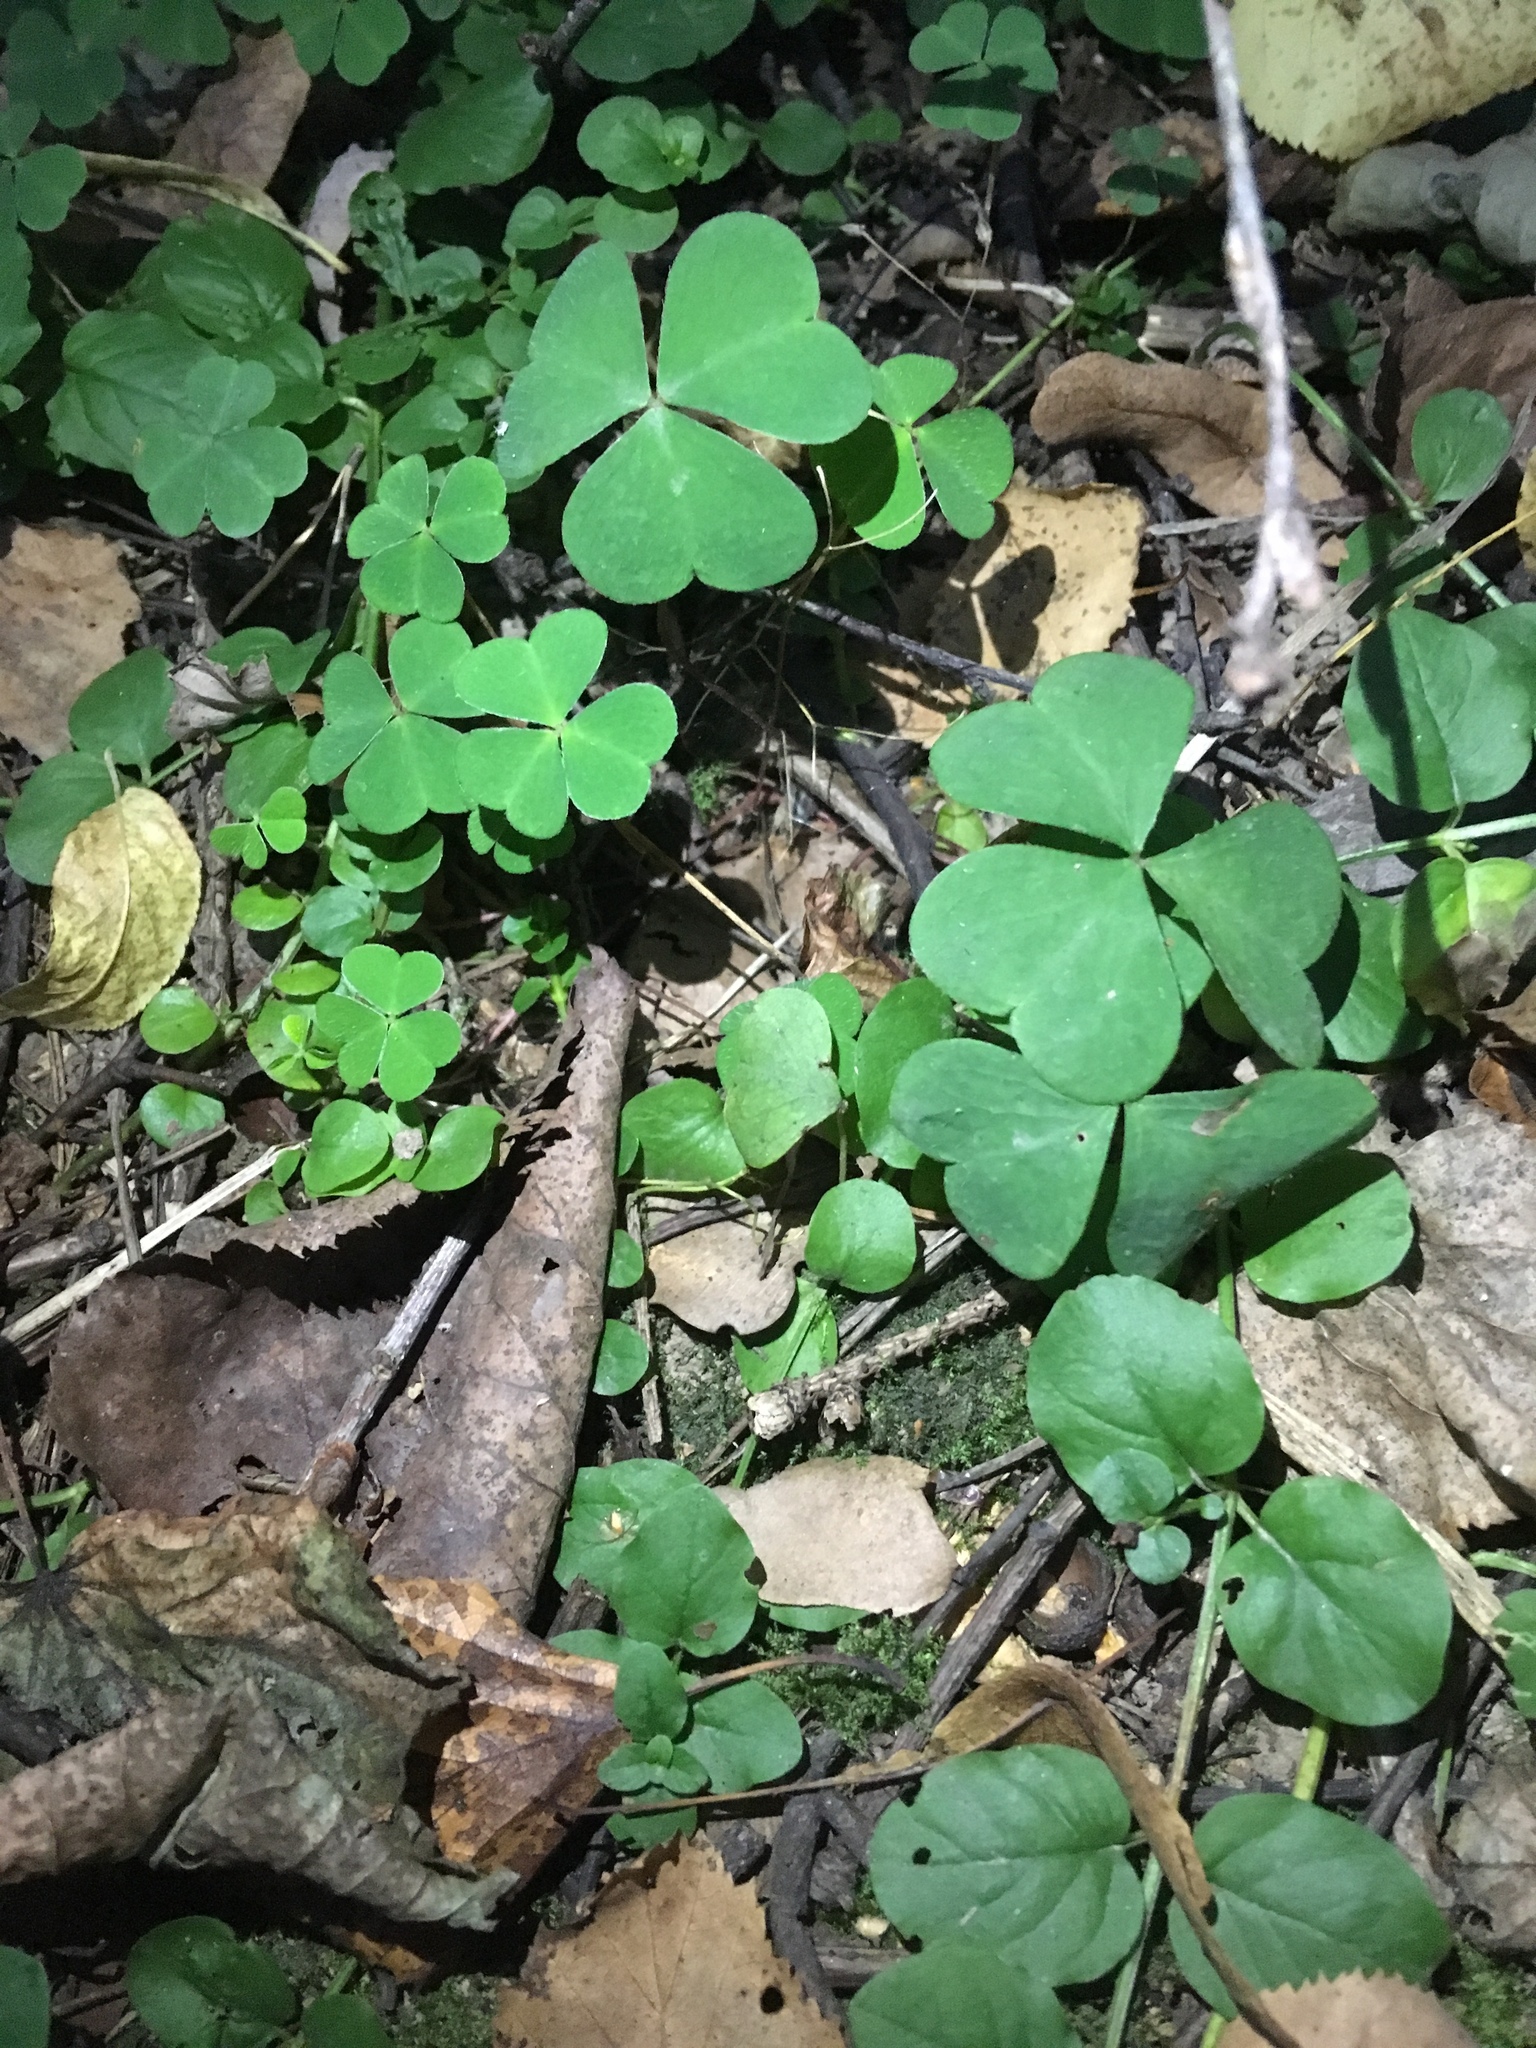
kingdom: Plantae
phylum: Tracheophyta
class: Magnoliopsida
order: Oxalidales
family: Oxalidaceae
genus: Oxalis
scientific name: Oxalis acetosella
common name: Wood-sorrel
